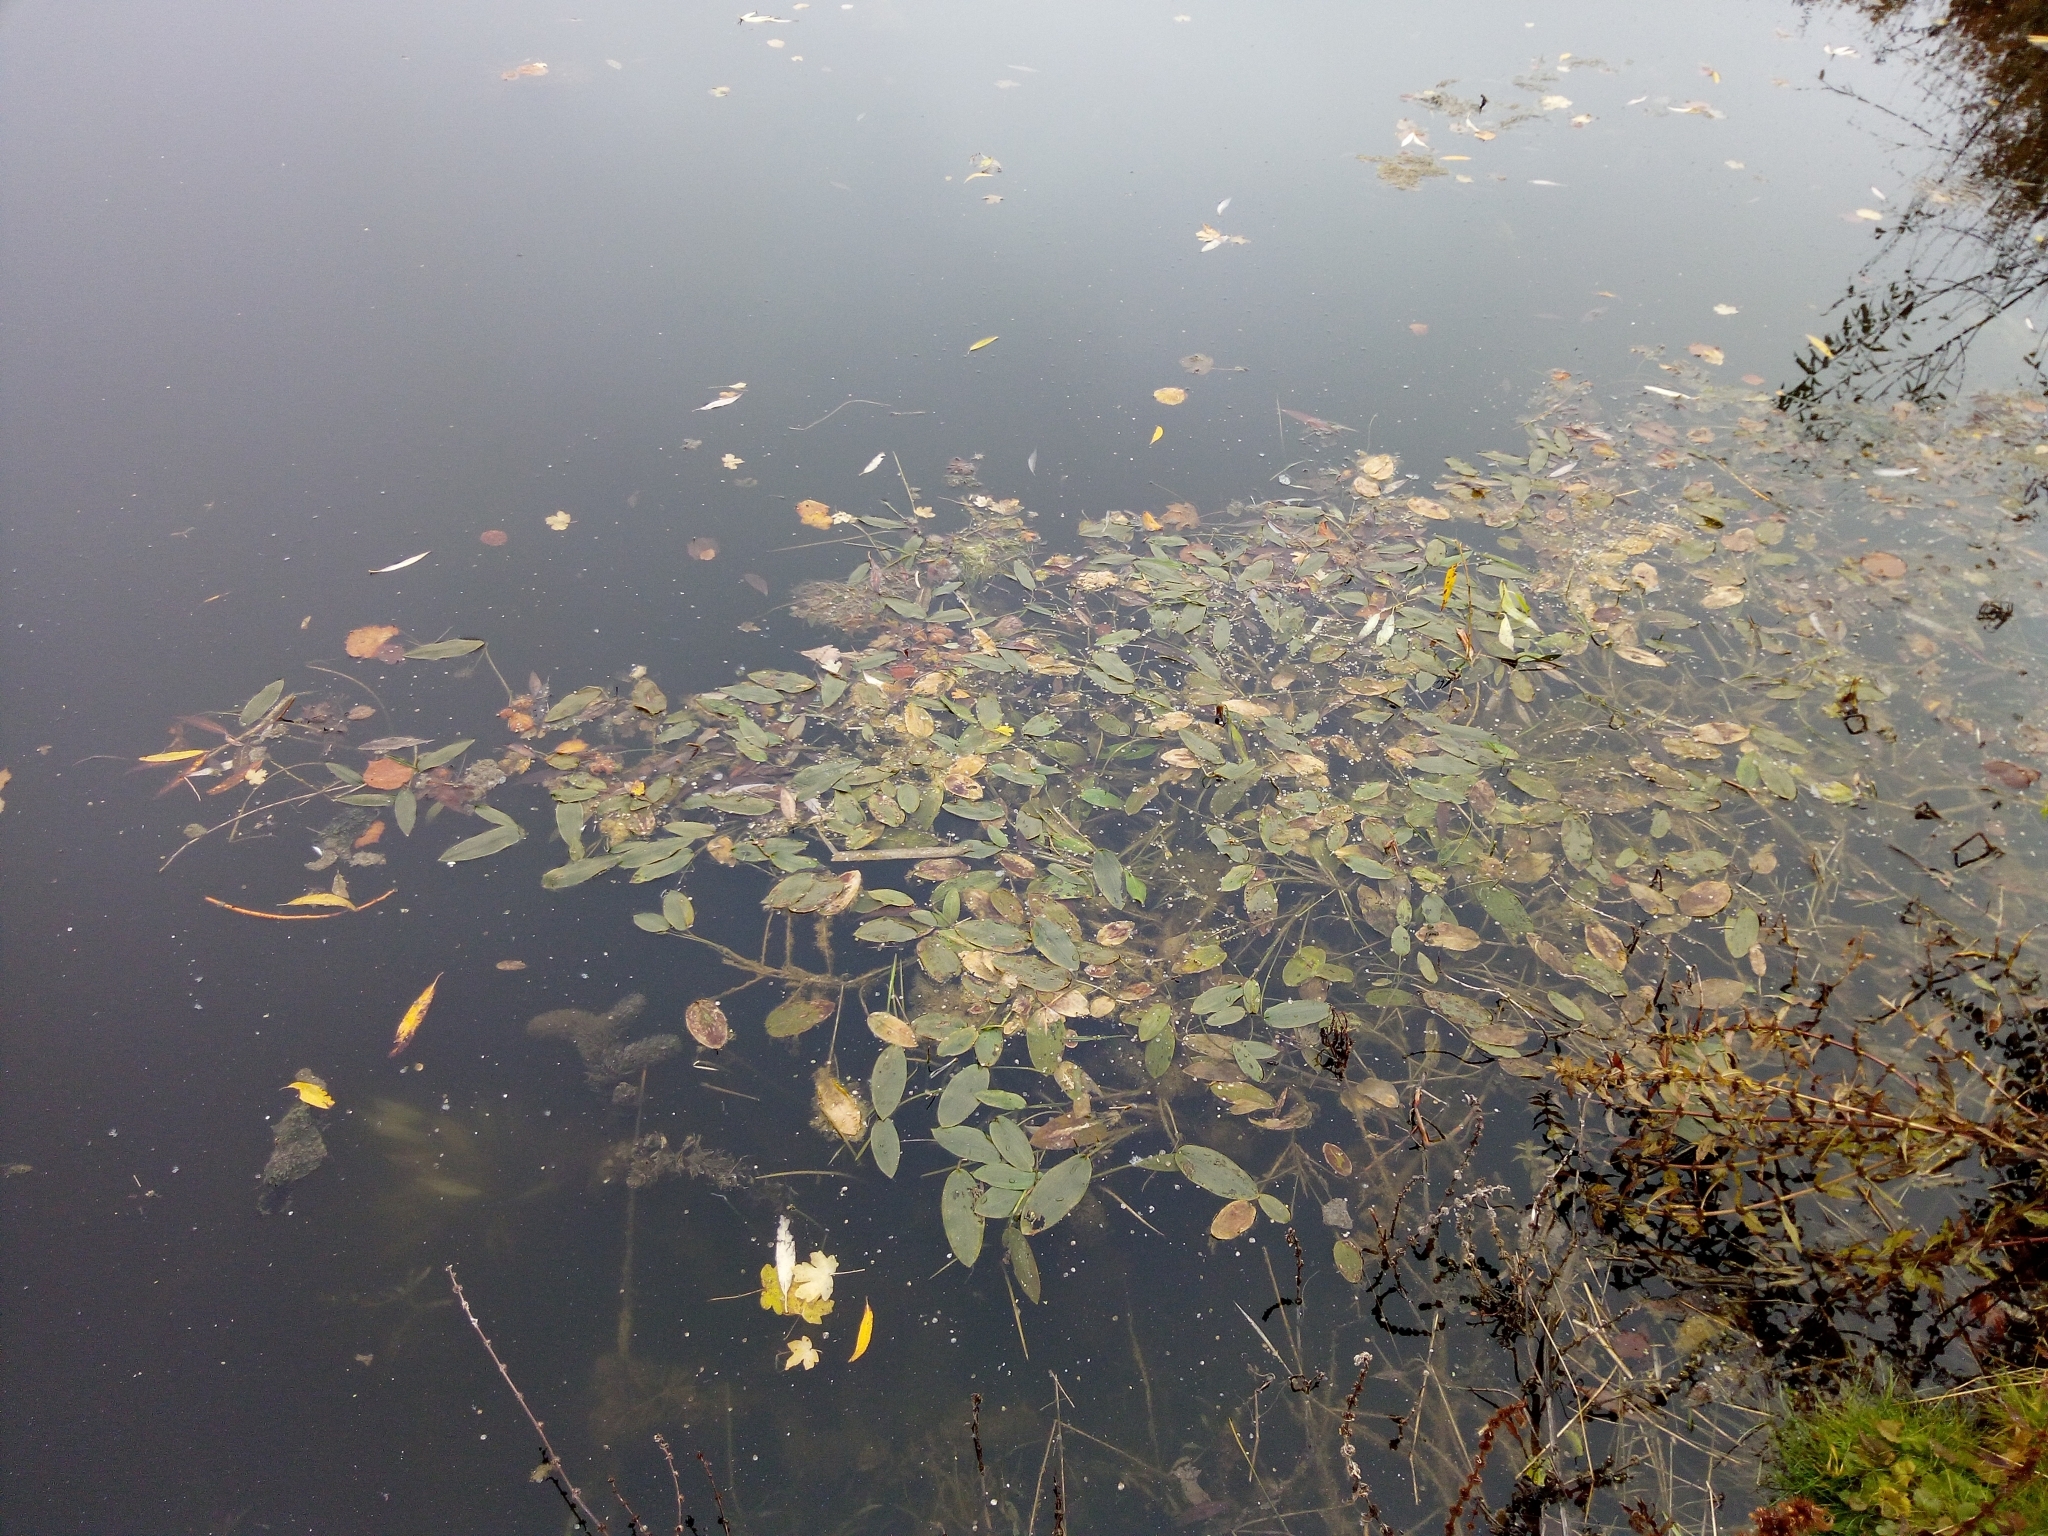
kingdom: Plantae
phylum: Tracheophyta
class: Liliopsida
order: Alismatales
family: Potamogetonaceae
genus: Potamogeton
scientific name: Potamogeton natans
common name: Broad-leaved pondweed
